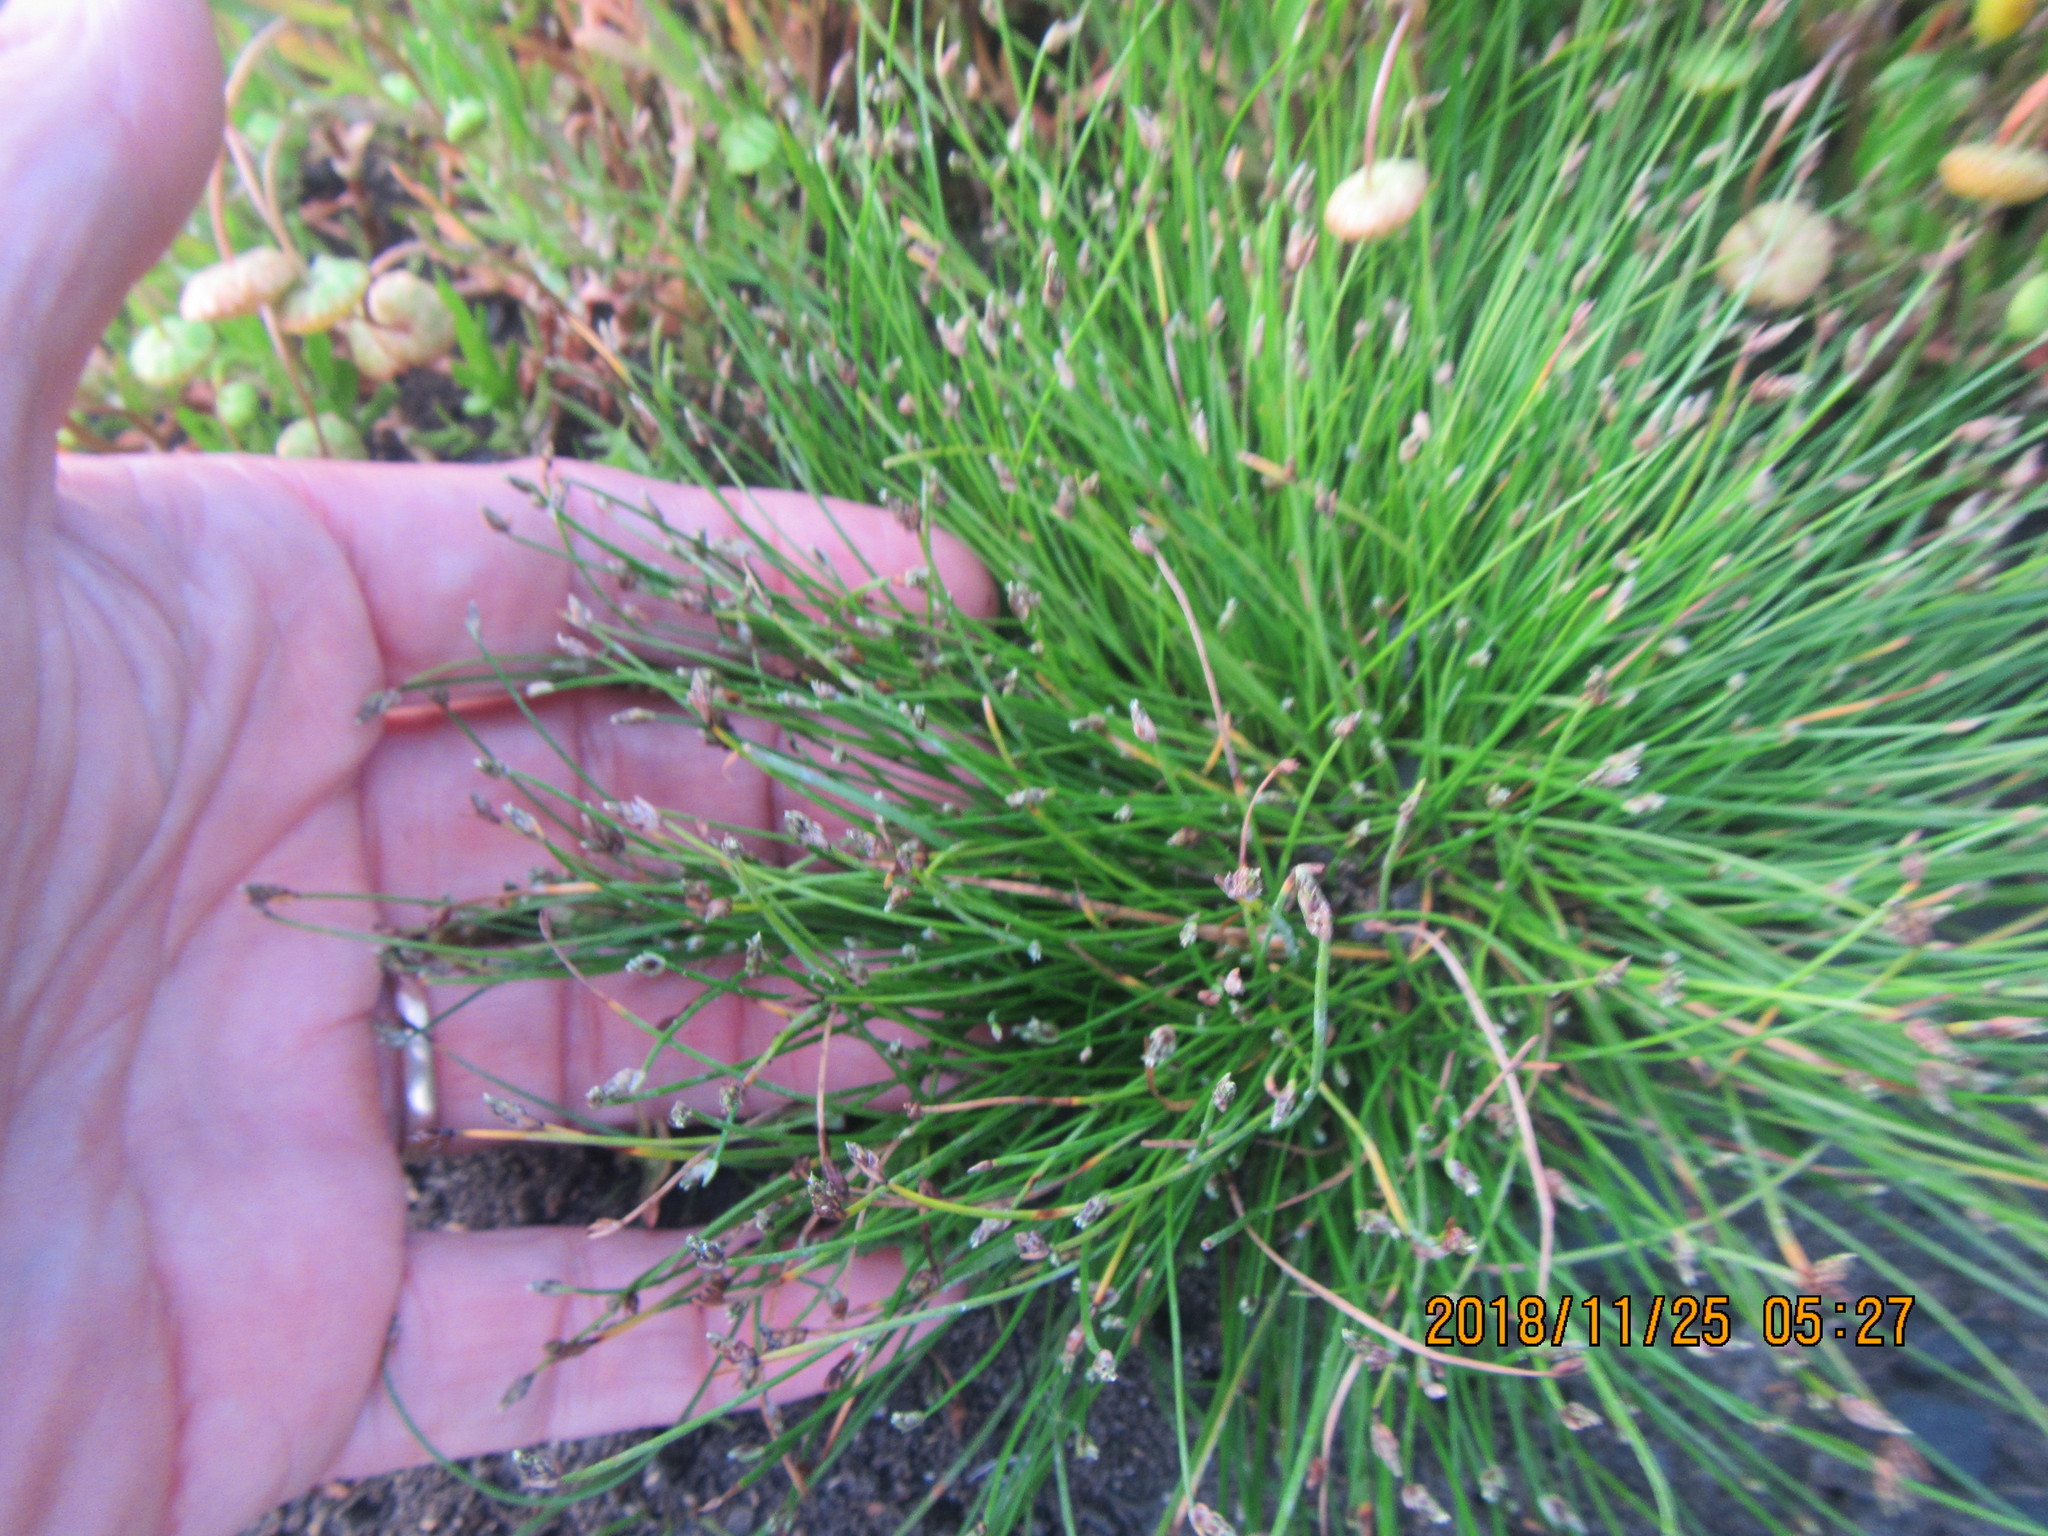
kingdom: Plantae
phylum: Tracheophyta
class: Liliopsida
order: Poales
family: Cyperaceae
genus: Isolepis
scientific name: Isolepis cernua
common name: Slender club-rush
